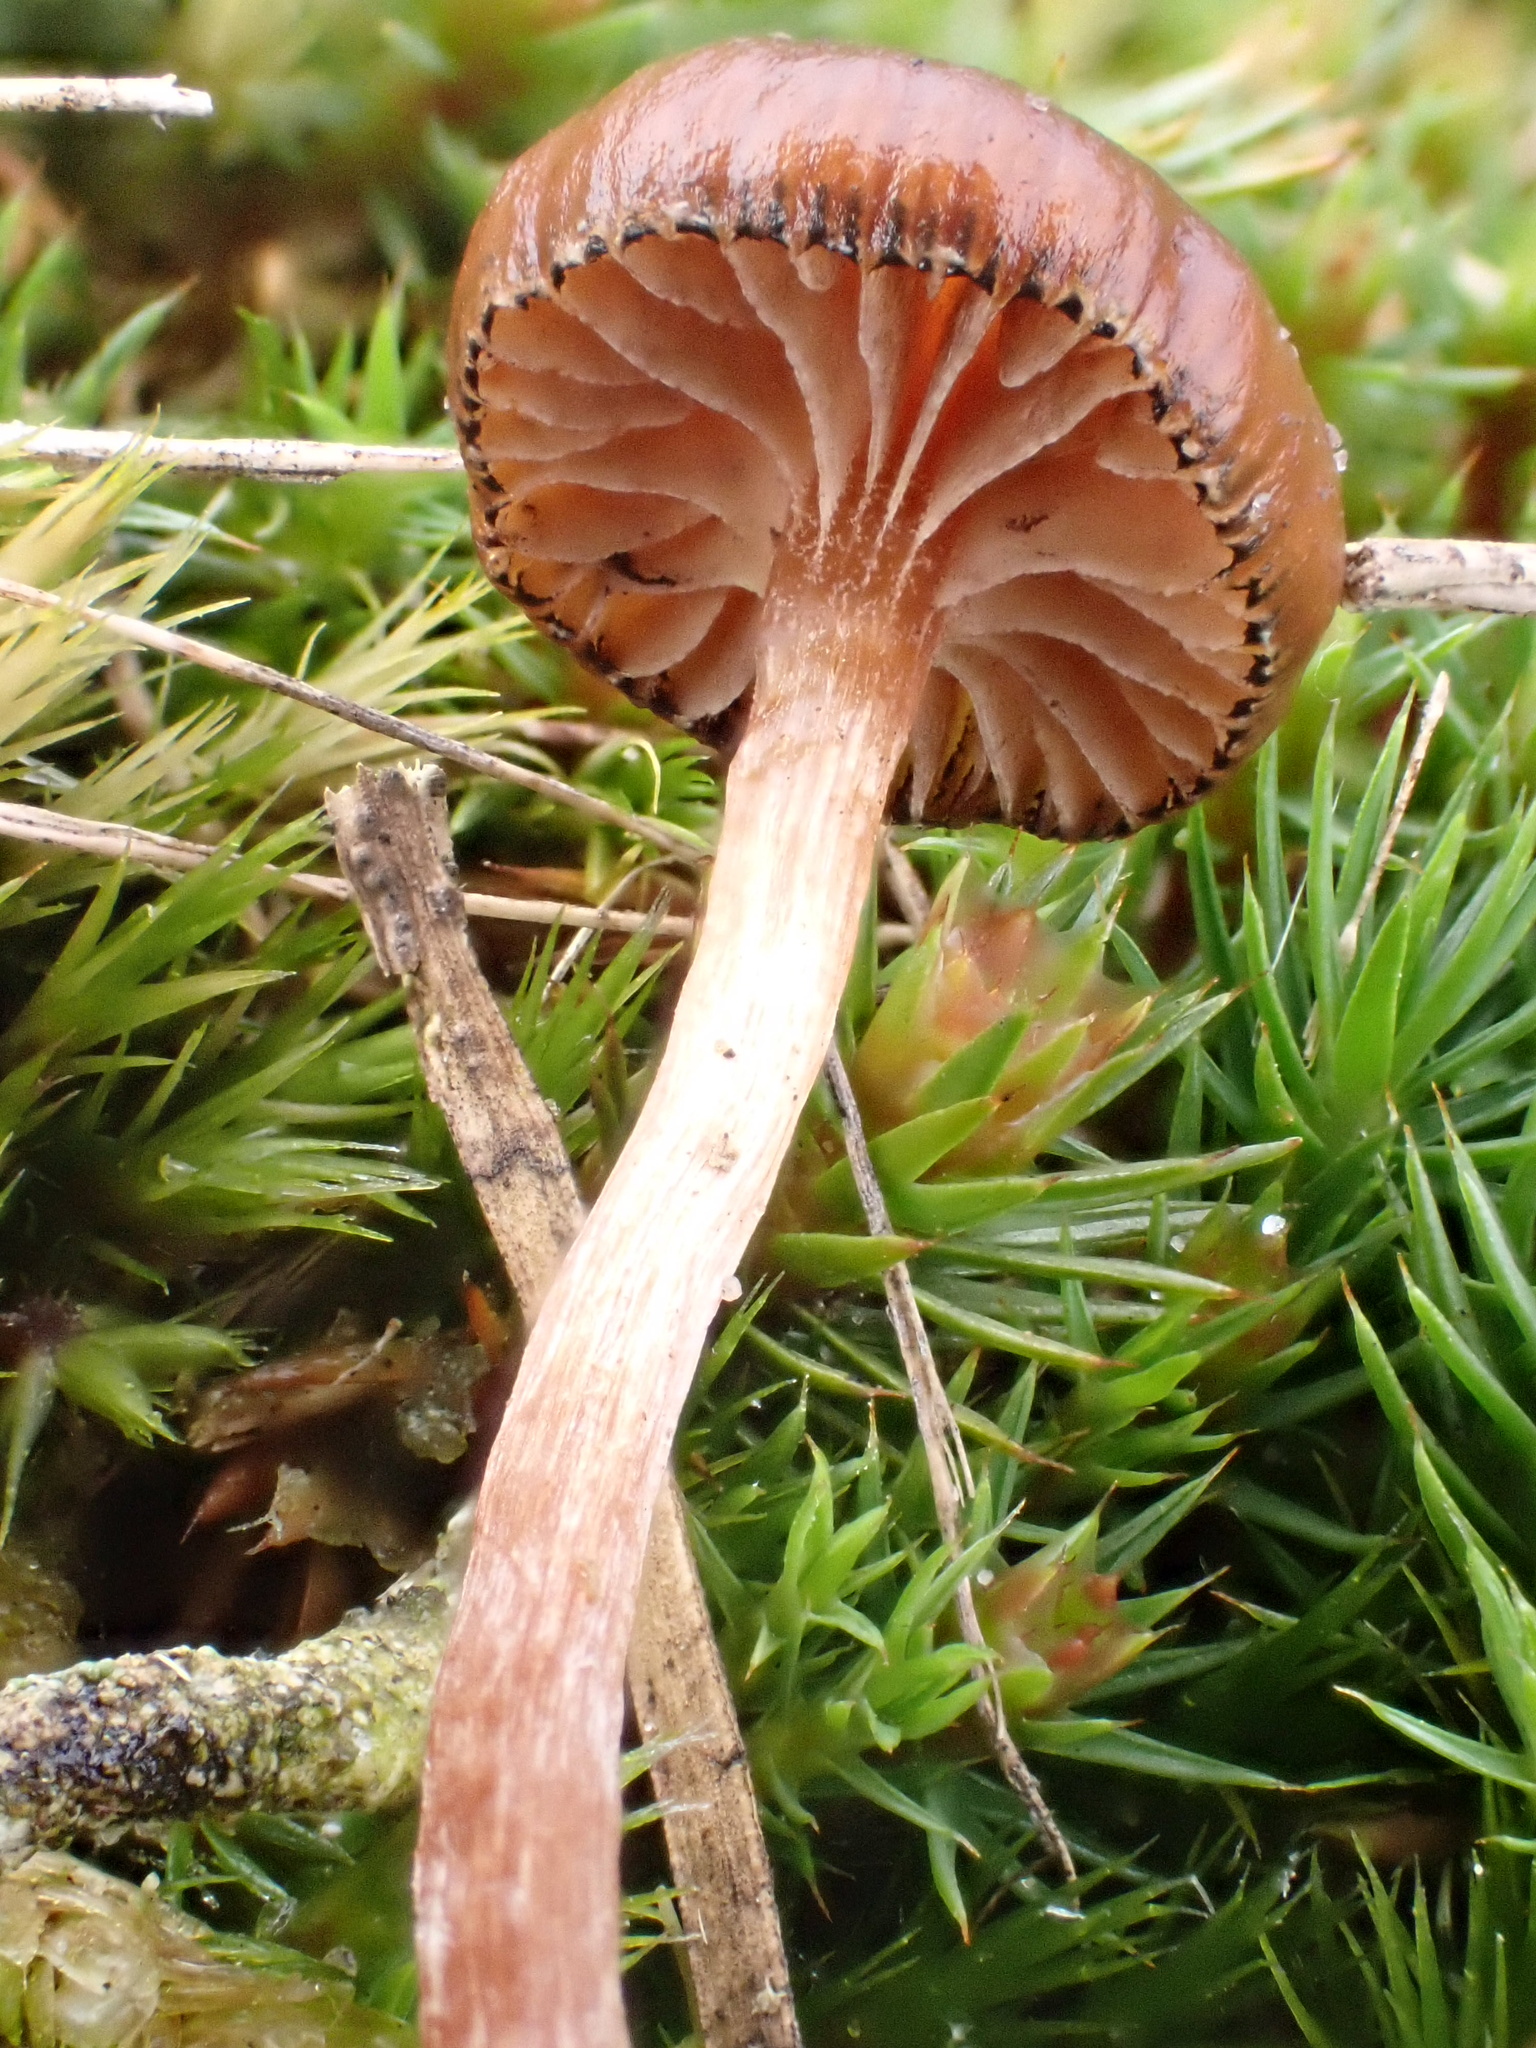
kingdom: Fungi
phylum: Basidiomycota
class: Agaricomycetes
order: Agaricales
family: Strophariaceae
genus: Deconica
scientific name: Deconica montana
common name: Mountain moss deconica
